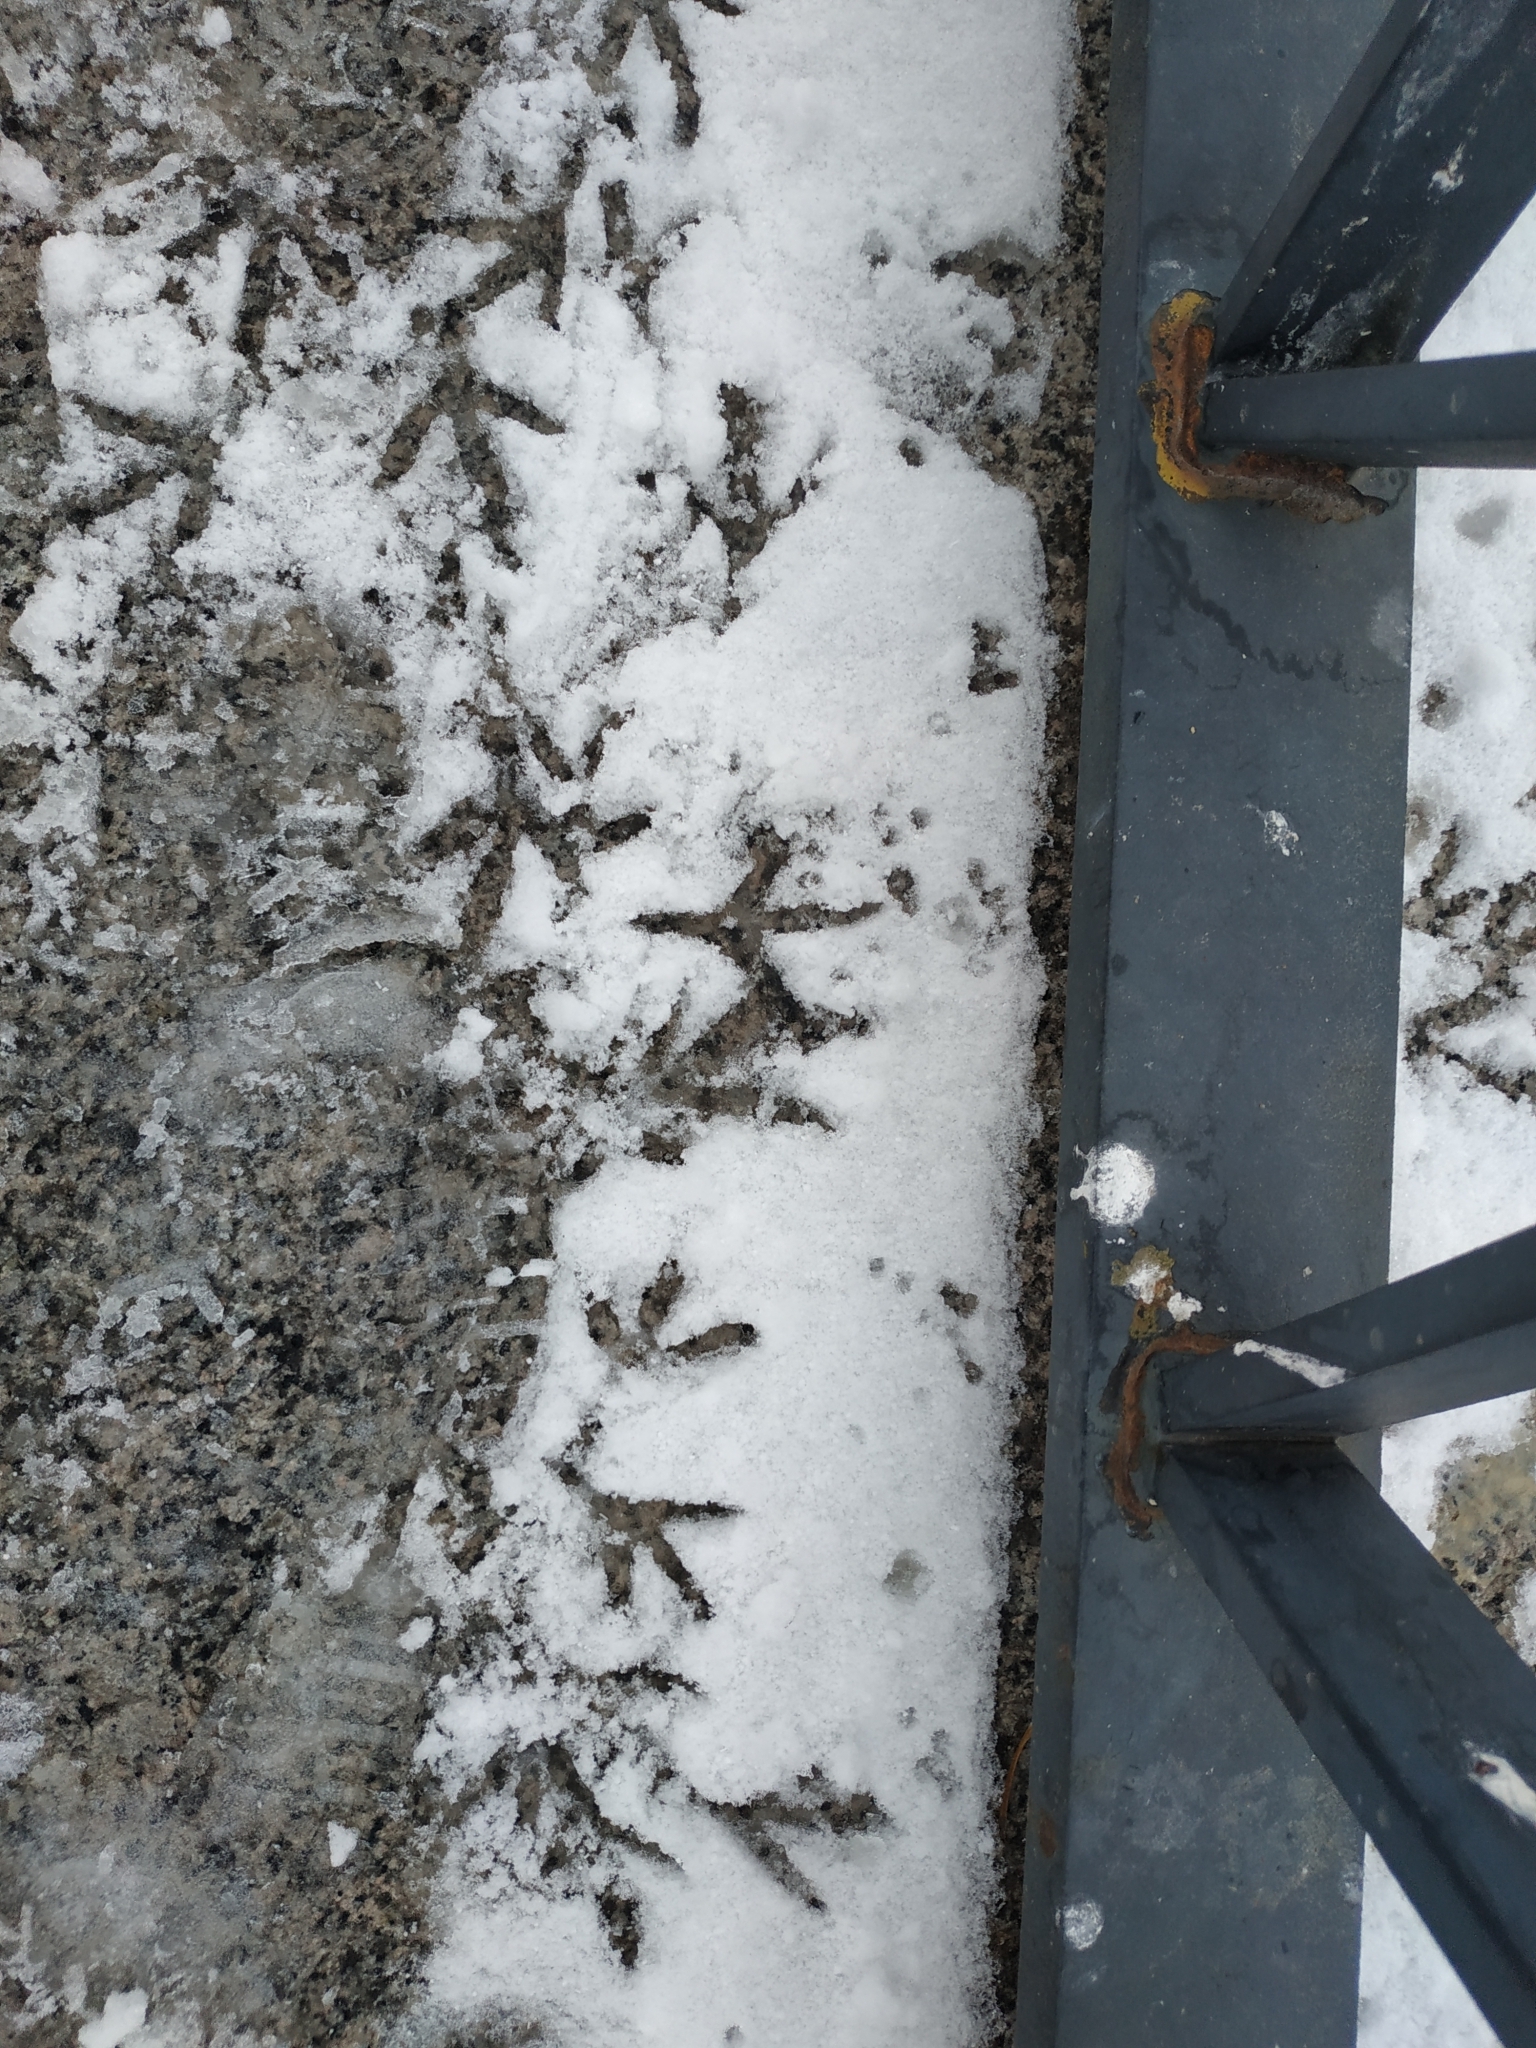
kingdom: Animalia
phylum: Chordata
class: Aves
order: Columbiformes
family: Columbidae
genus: Columba
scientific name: Columba livia
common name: Rock pigeon
